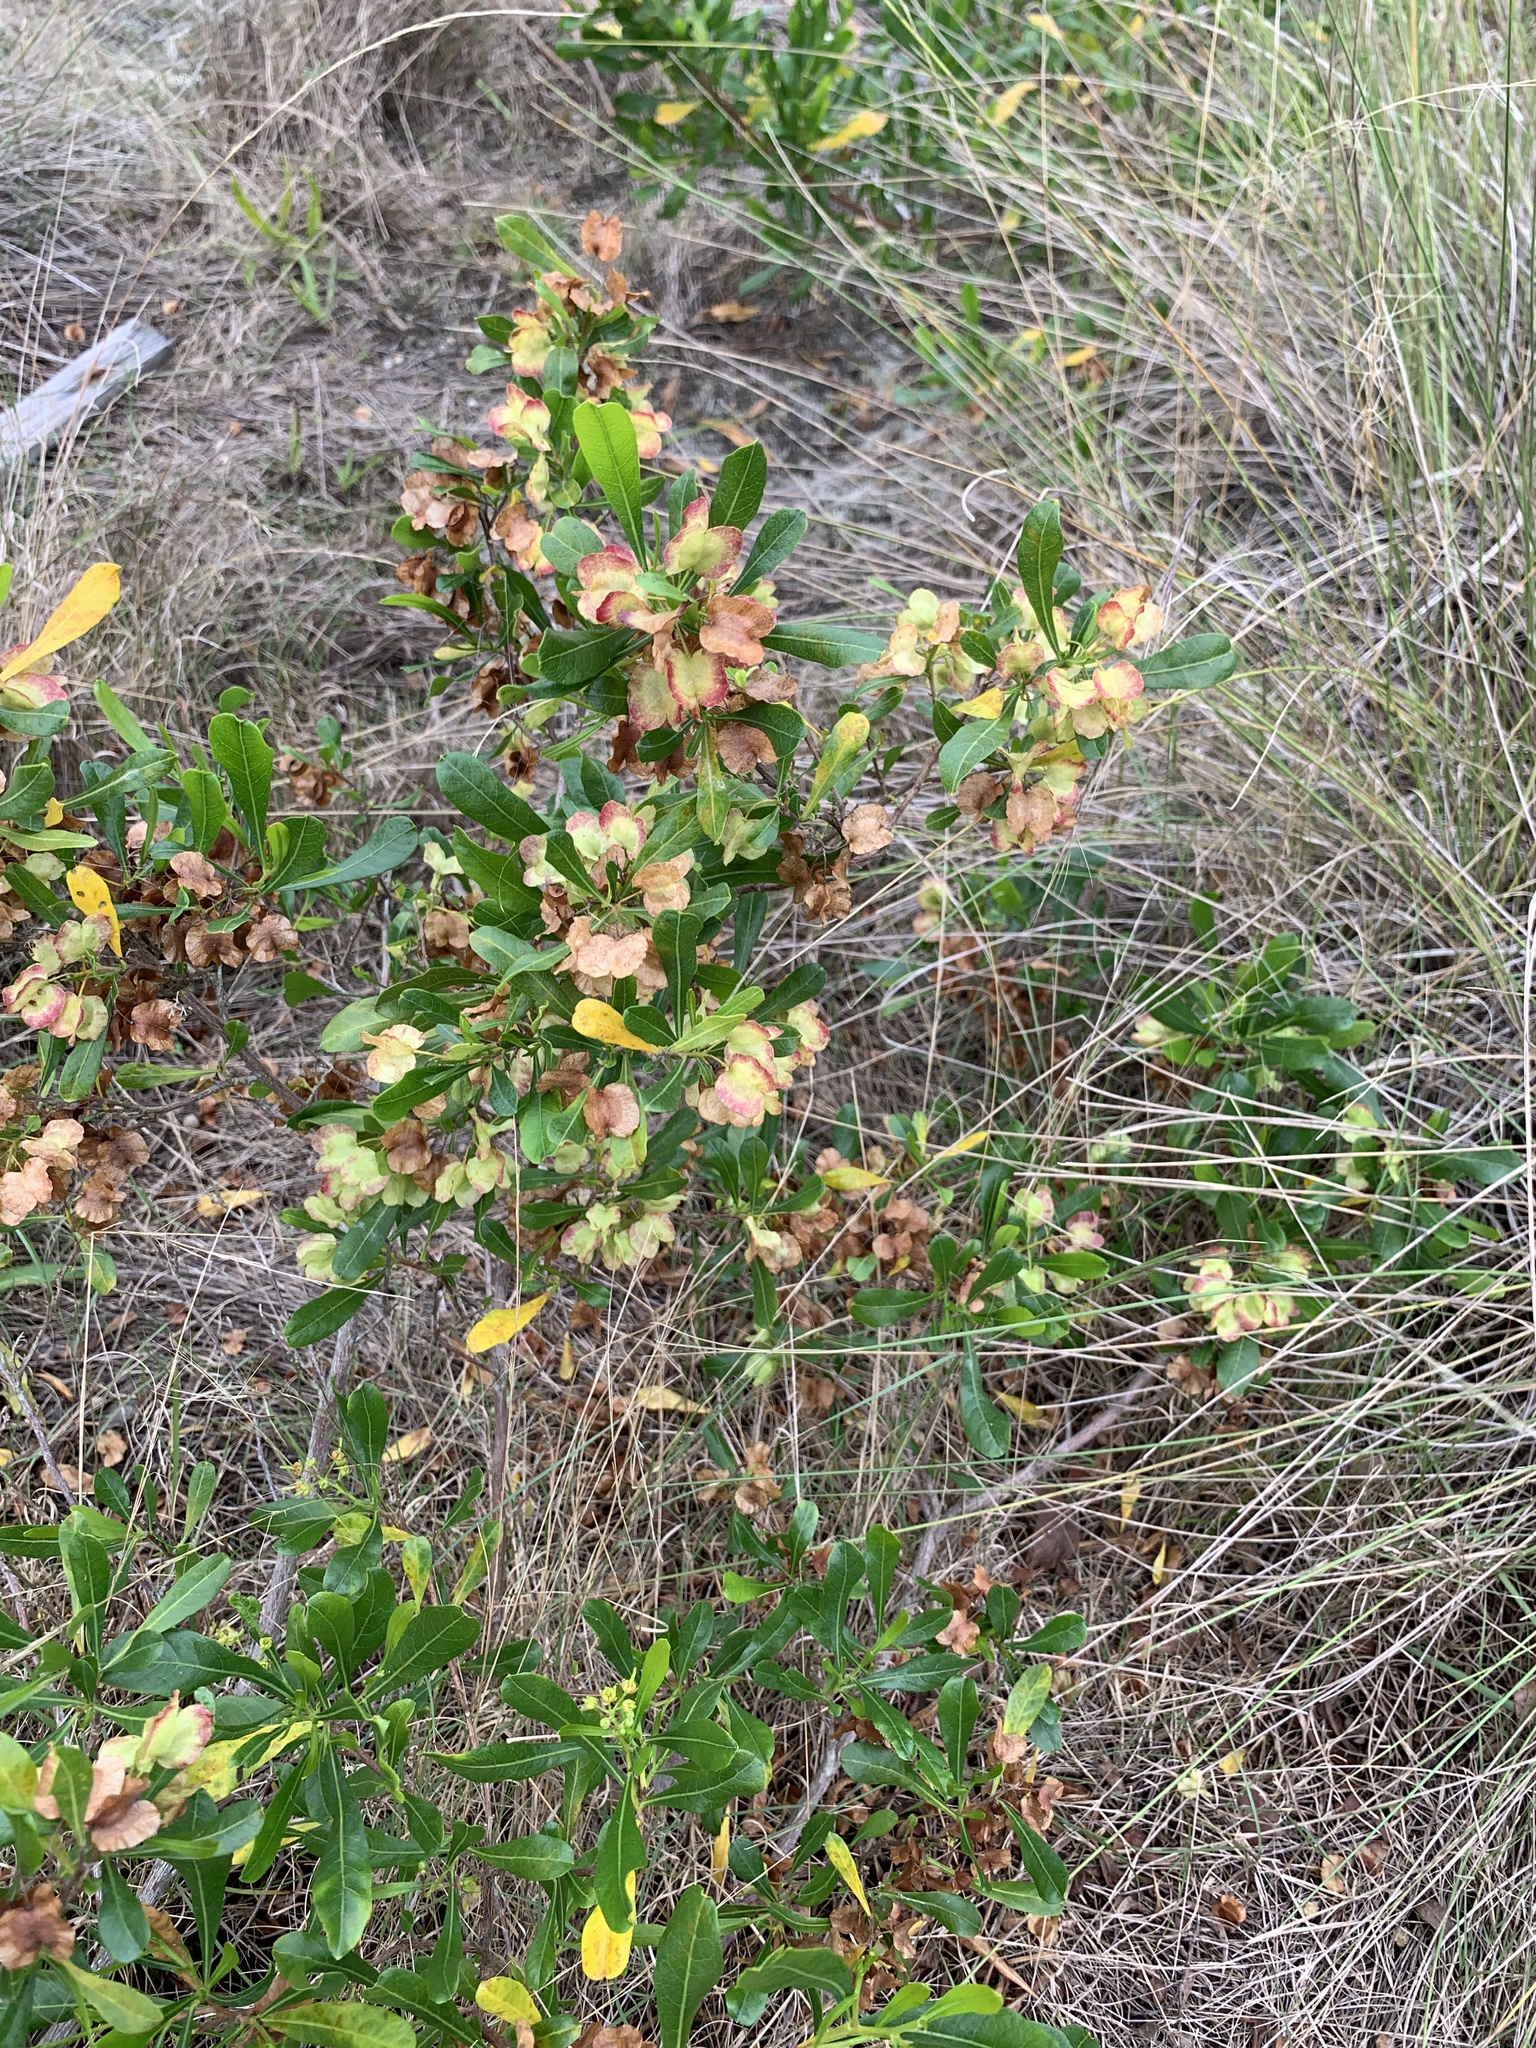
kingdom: Plantae
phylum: Tracheophyta
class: Magnoliopsida
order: Sapindales
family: Sapindaceae
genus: Dodonaea
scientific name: Dodonaea viscosa
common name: Hopbush
